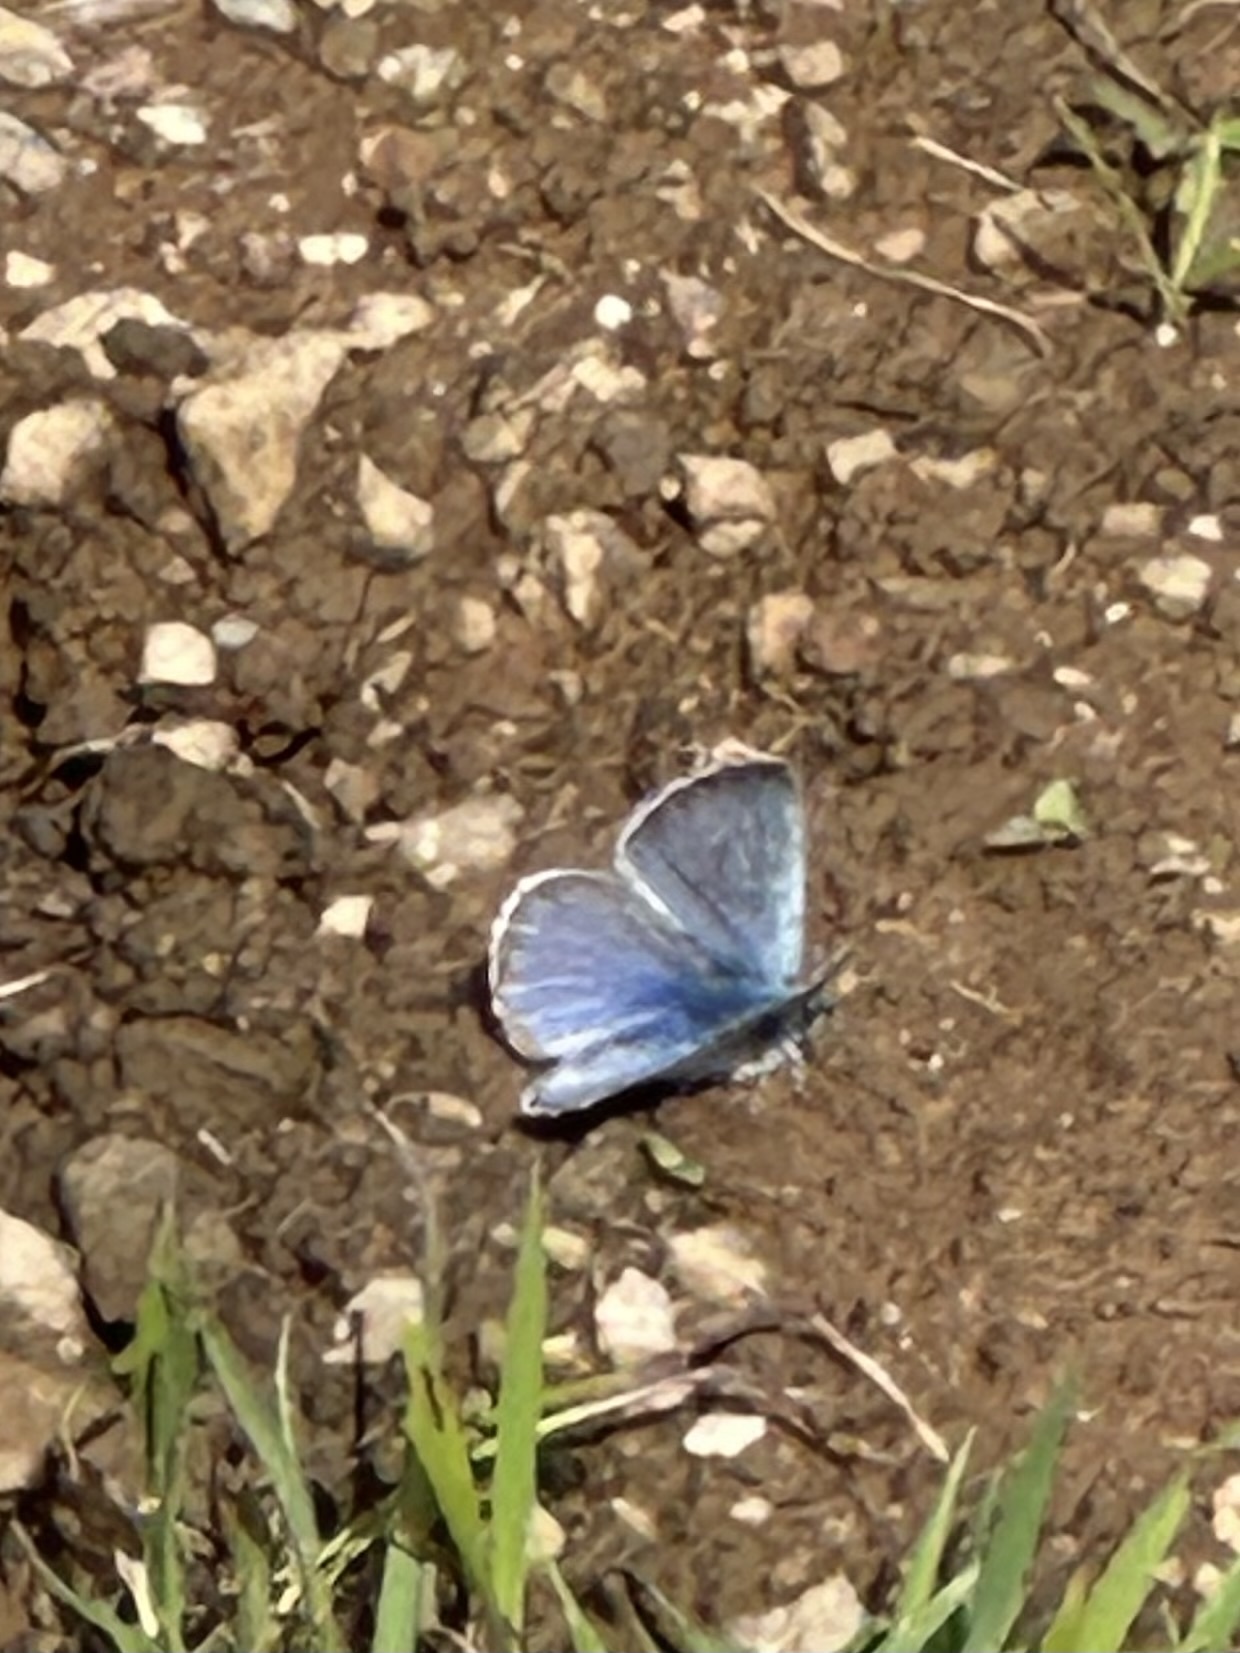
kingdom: Animalia
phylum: Arthropoda
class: Insecta
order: Lepidoptera
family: Lycaenidae
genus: Glaucopsyche
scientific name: Glaucopsyche lygdamus
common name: Silvery blue
